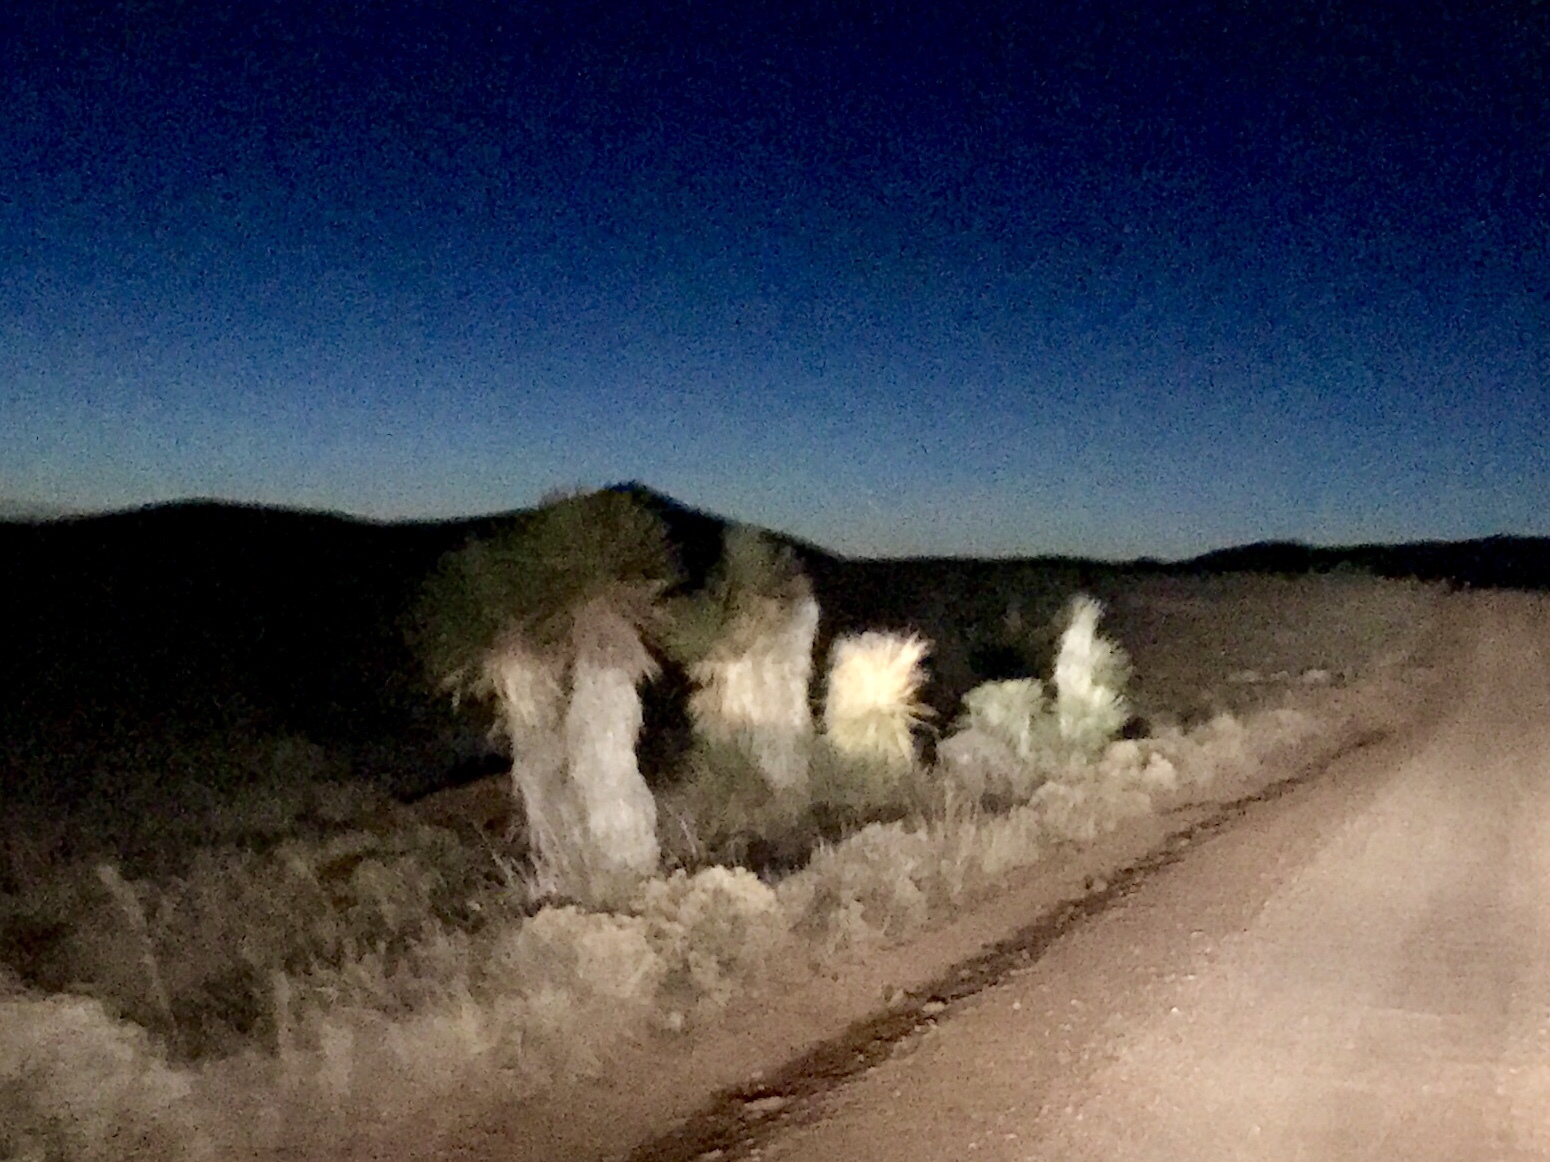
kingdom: Plantae
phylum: Tracheophyta
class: Liliopsida
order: Asparagales
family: Asparagaceae
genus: Yucca
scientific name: Yucca elata
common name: Palmella
